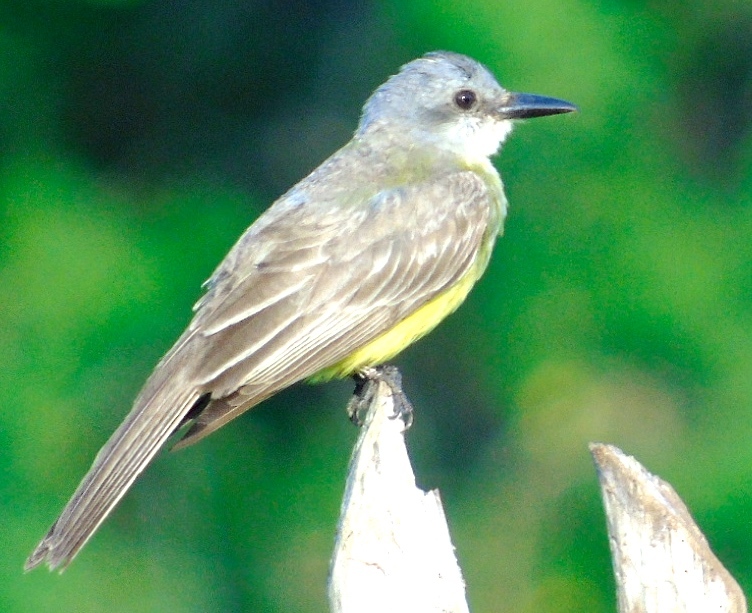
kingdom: Animalia
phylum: Chordata
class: Aves
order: Passeriformes
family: Tyrannidae
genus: Tyrannus
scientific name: Tyrannus melancholicus
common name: Tropical kingbird
